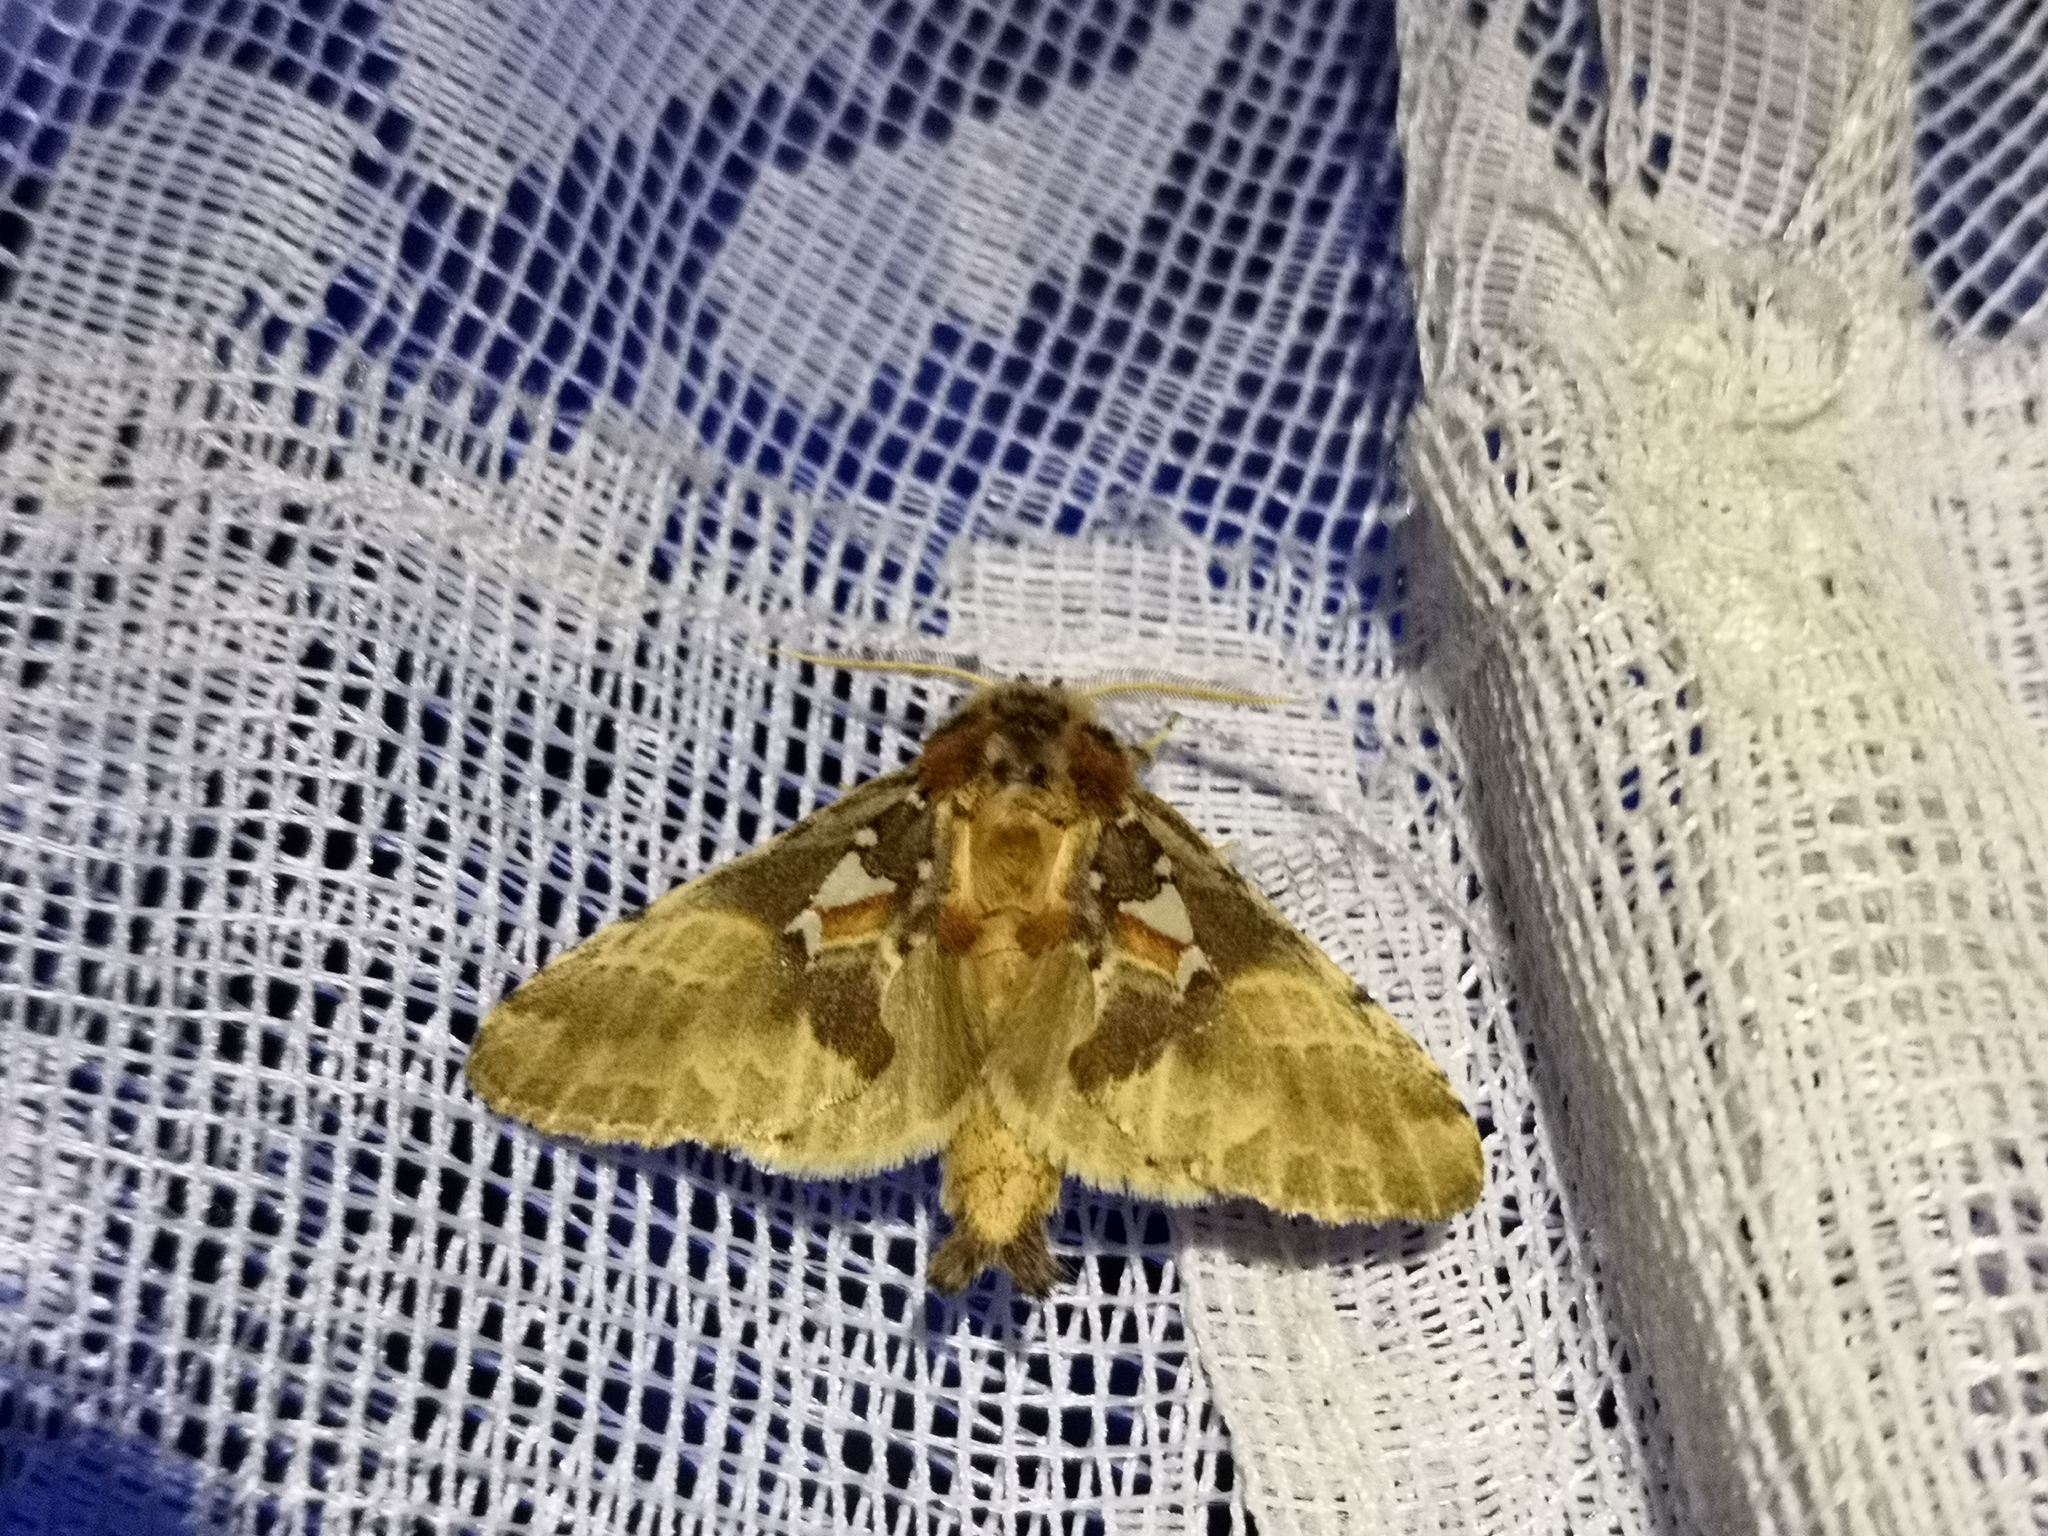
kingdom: Animalia
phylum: Arthropoda
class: Insecta
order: Lepidoptera
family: Notodontidae
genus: Spatalia
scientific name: Spatalia argentina
